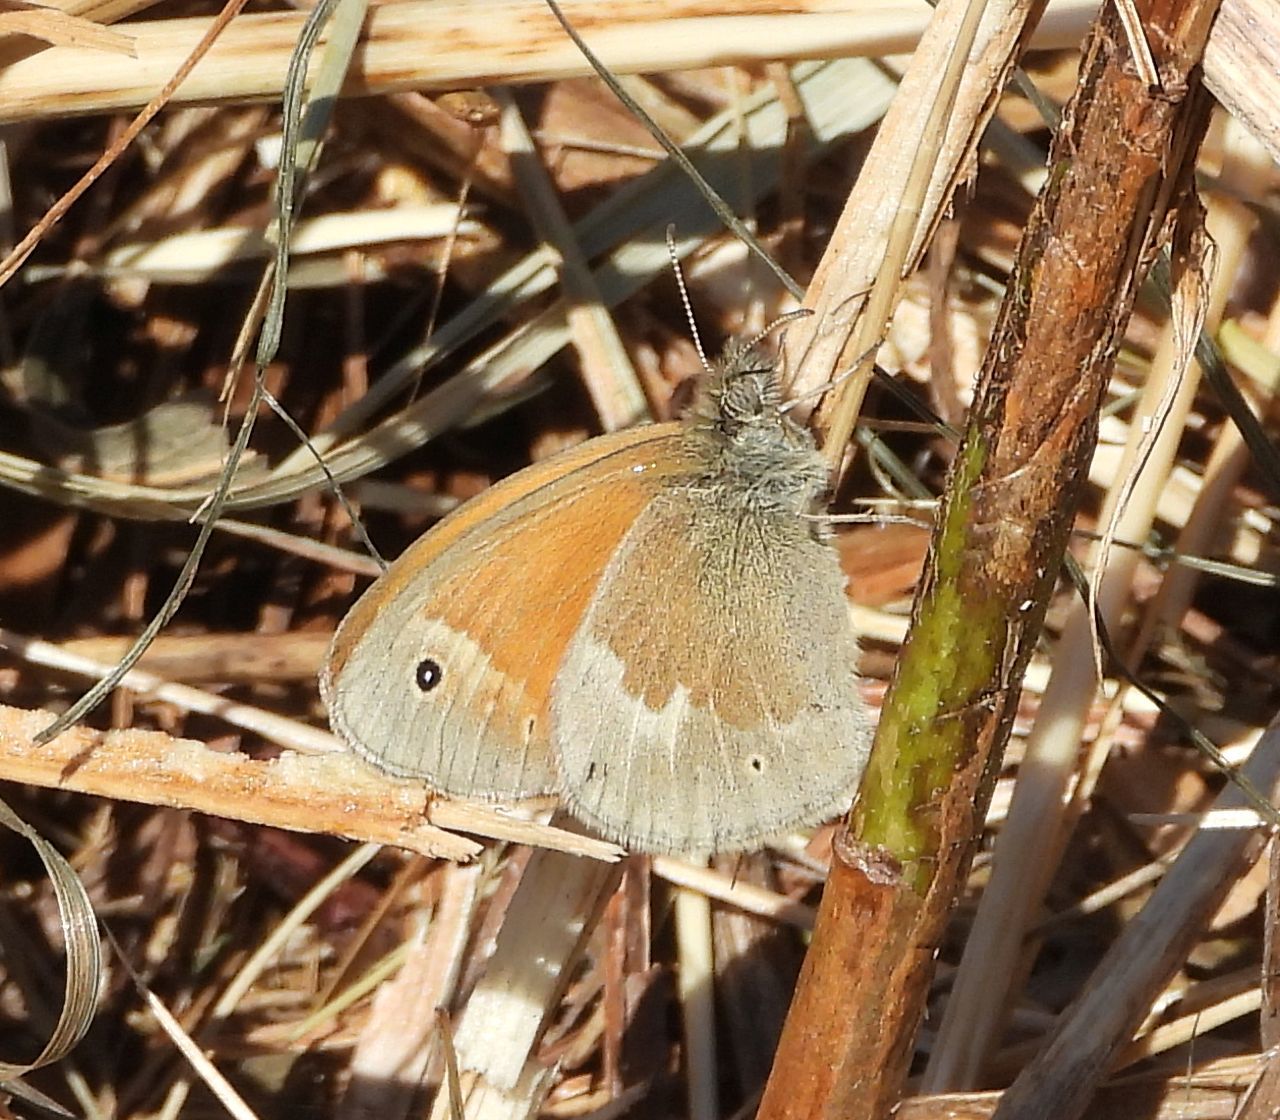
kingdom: Animalia
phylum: Arthropoda
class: Insecta
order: Lepidoptera
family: Nymphalidae
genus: Coenonympha
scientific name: Coenonympha california
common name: Common ringlet
